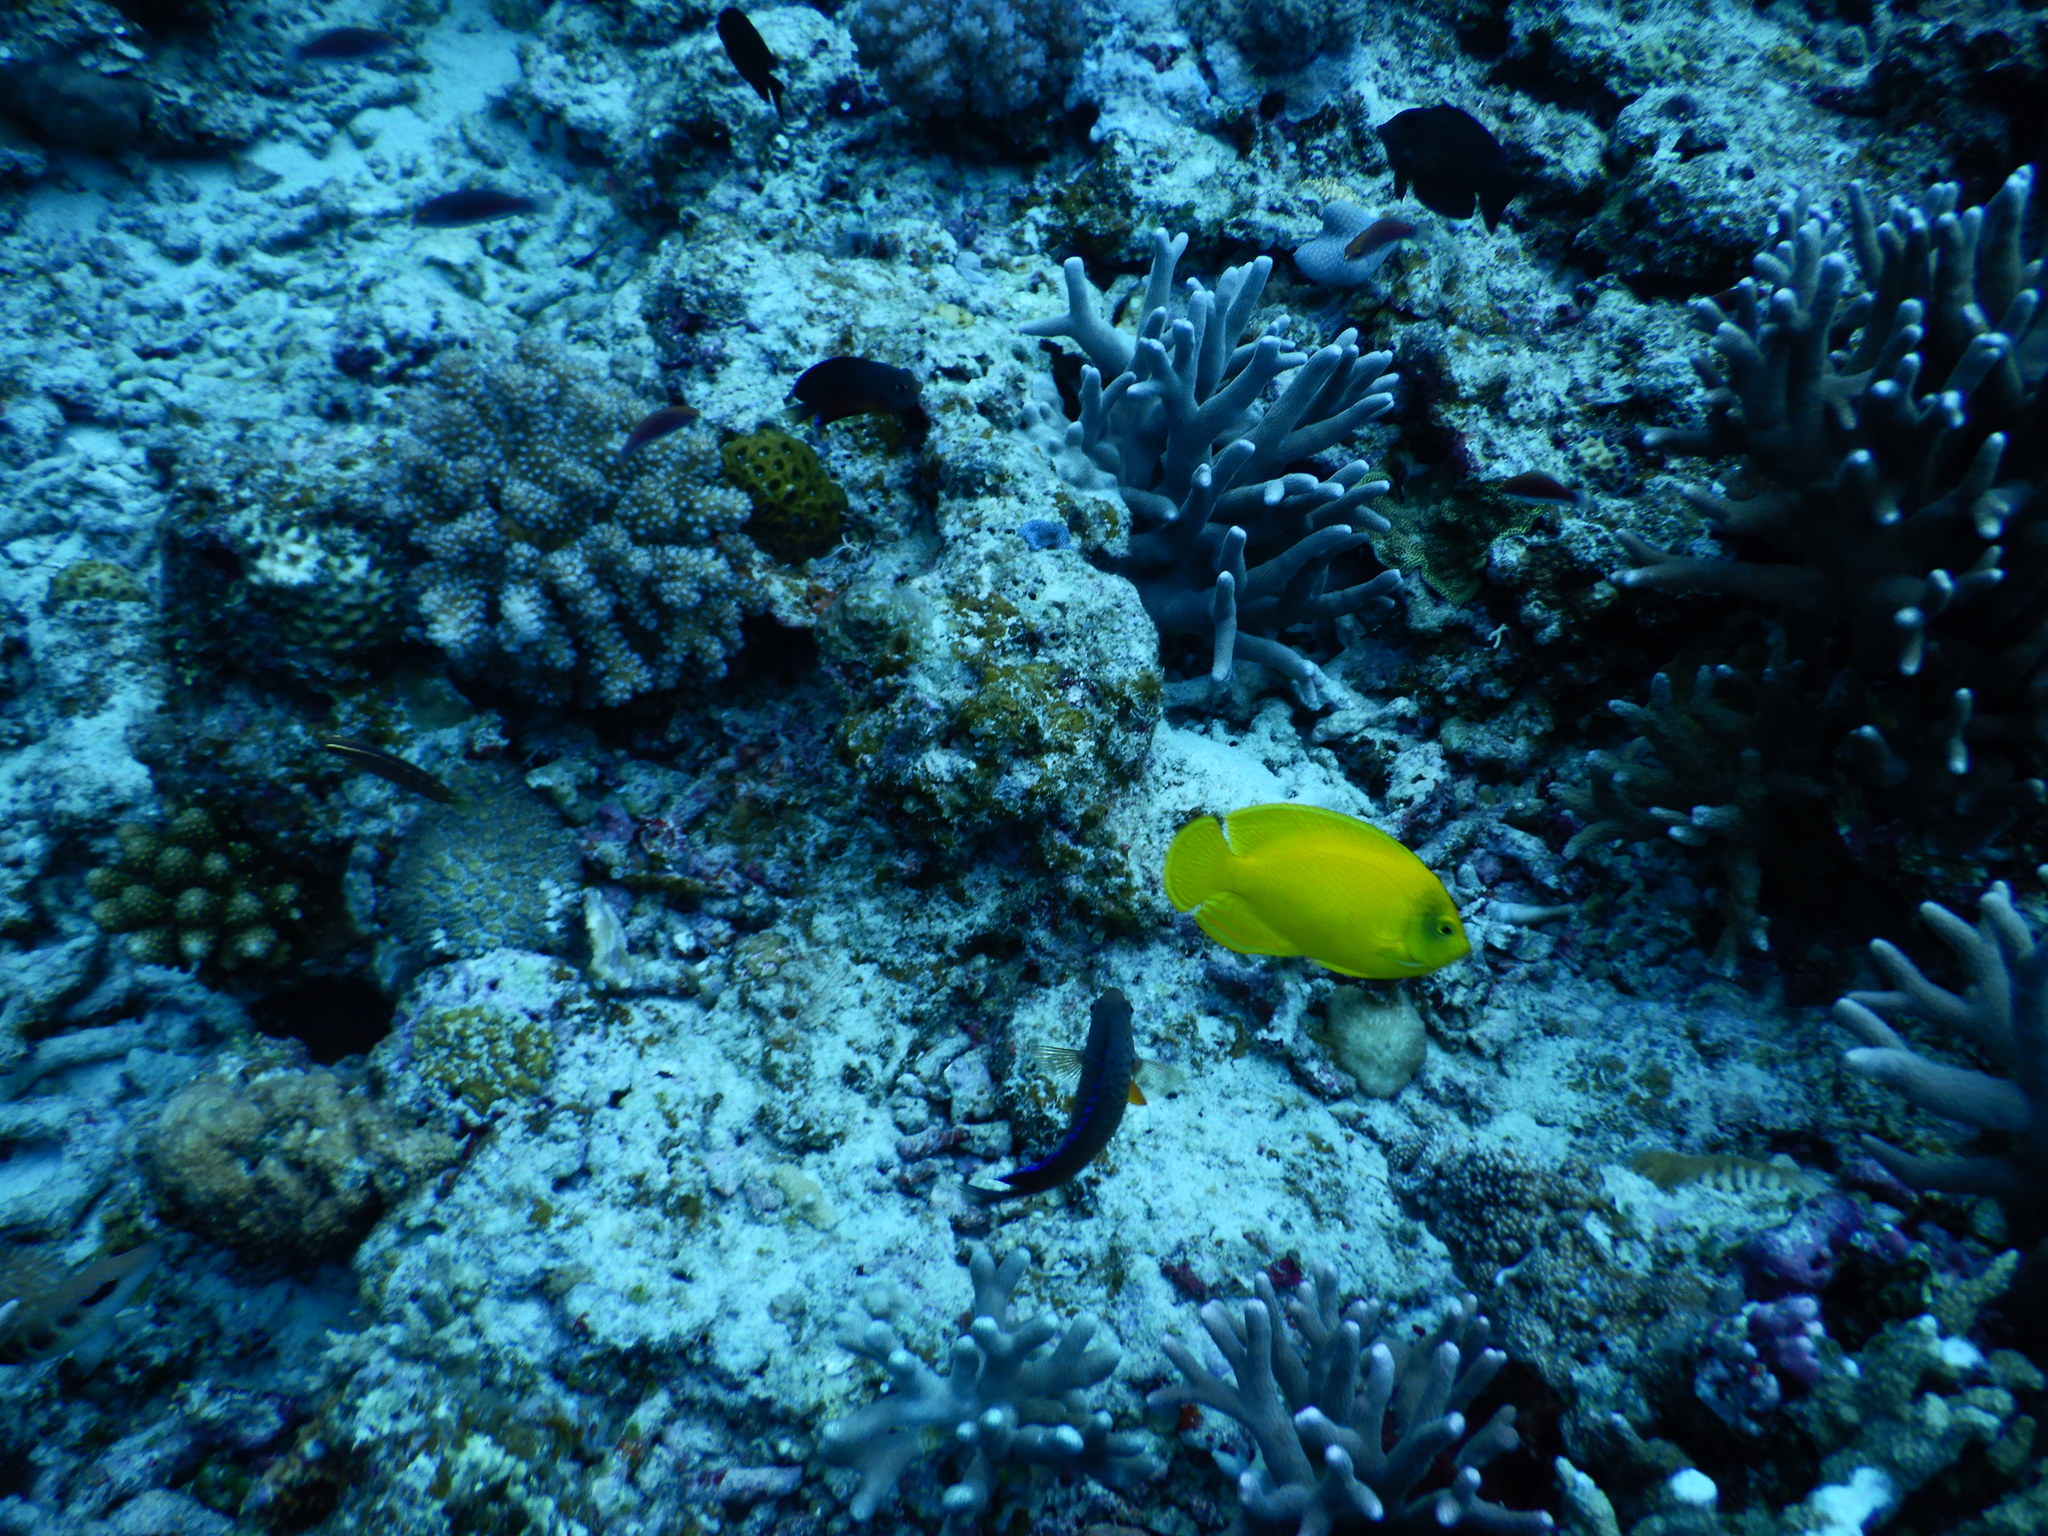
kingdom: Animalia
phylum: Chordata
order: Perciformes
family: Pomacanthidae
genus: Centropyge
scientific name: Centropyge heraldi
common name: Herald's angelfish
